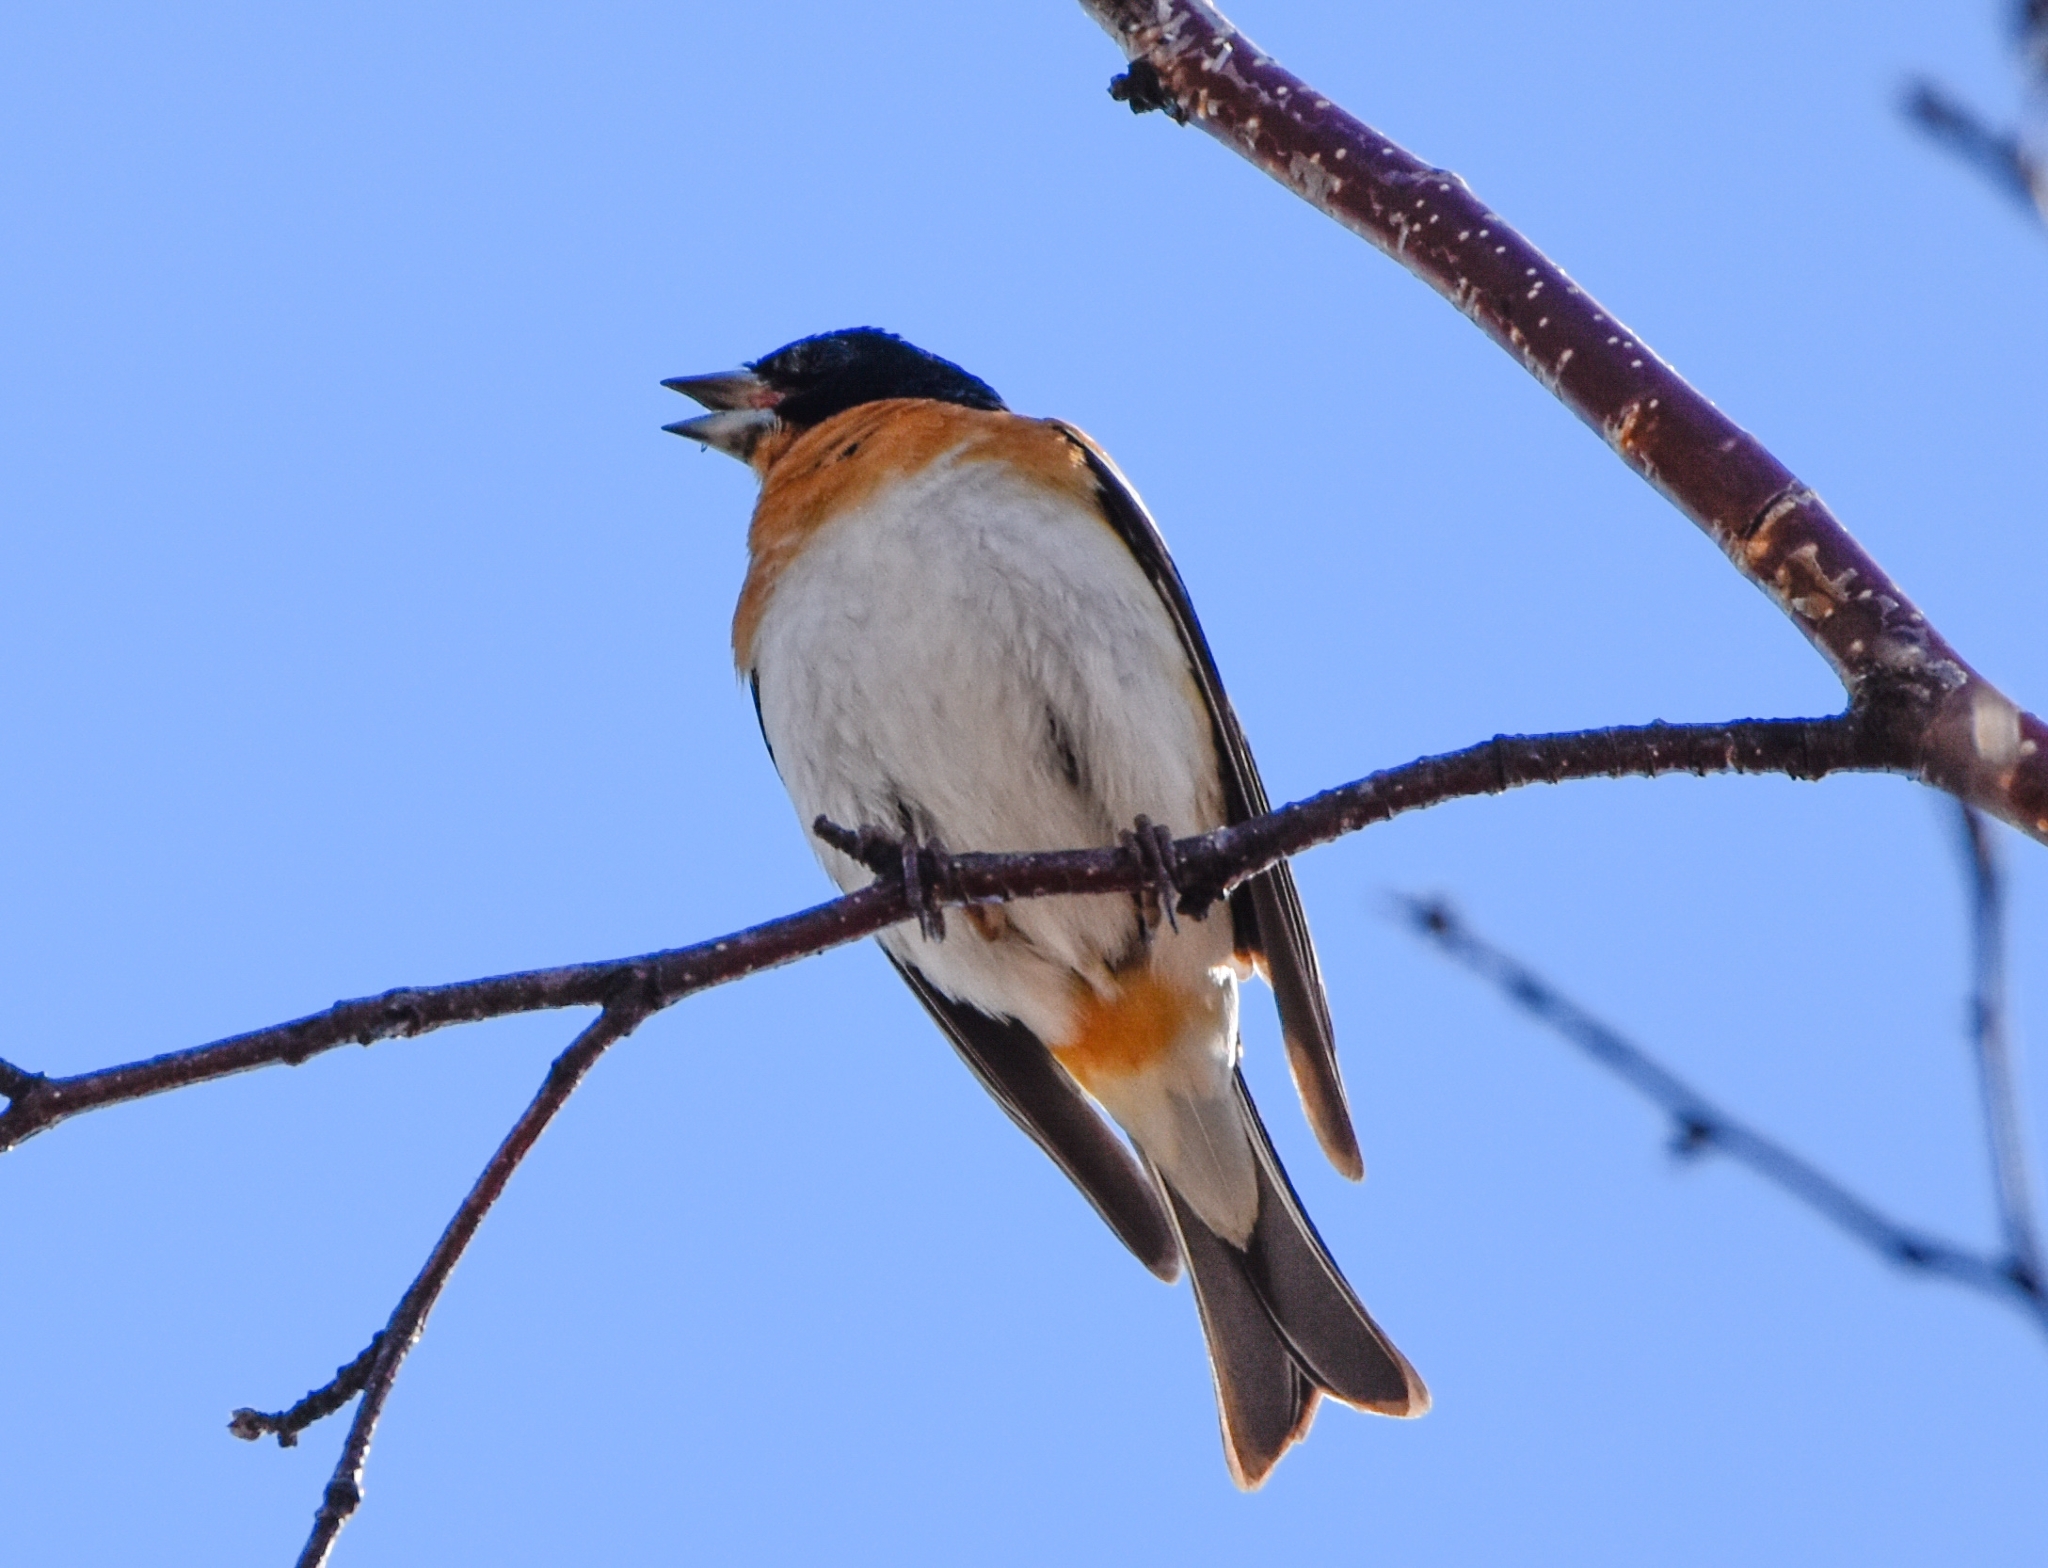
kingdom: Animalia
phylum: Chordata
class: Aves
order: Passeriformes
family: Fringillidae
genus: Fringilla
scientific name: Fringilla montifringilla
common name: Brambling
